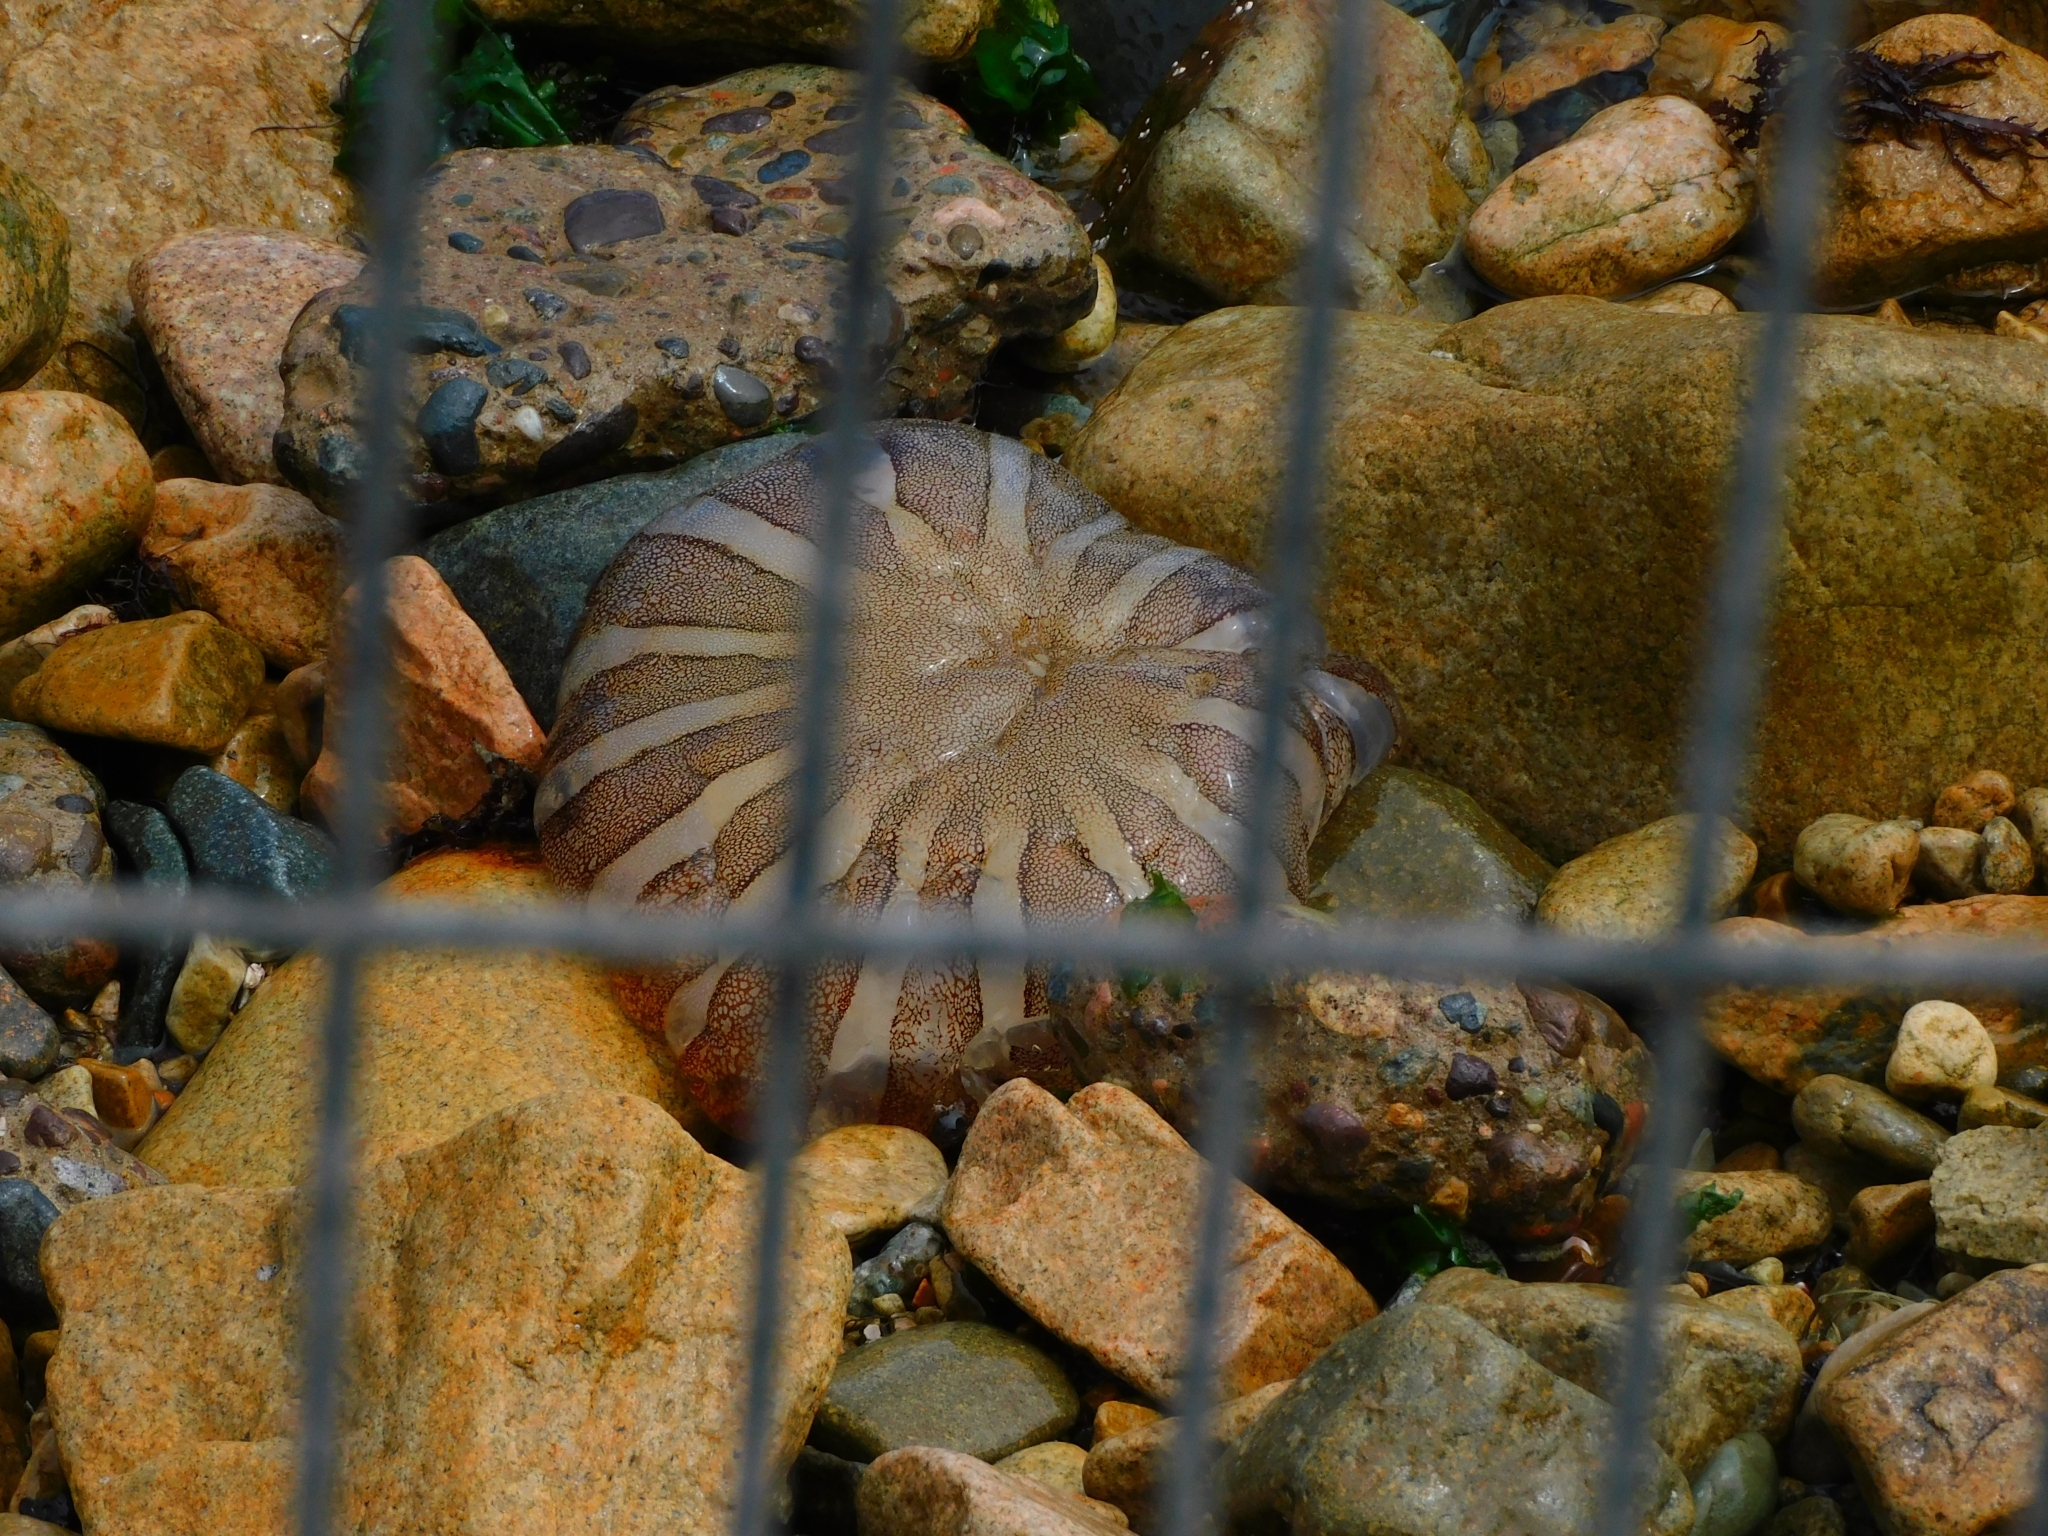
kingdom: Animalia
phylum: Cnidaria
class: Scyphozoa
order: Semaeostomeae
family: Pelagiidae
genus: Chrysaora
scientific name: Chrysaora plocamia
